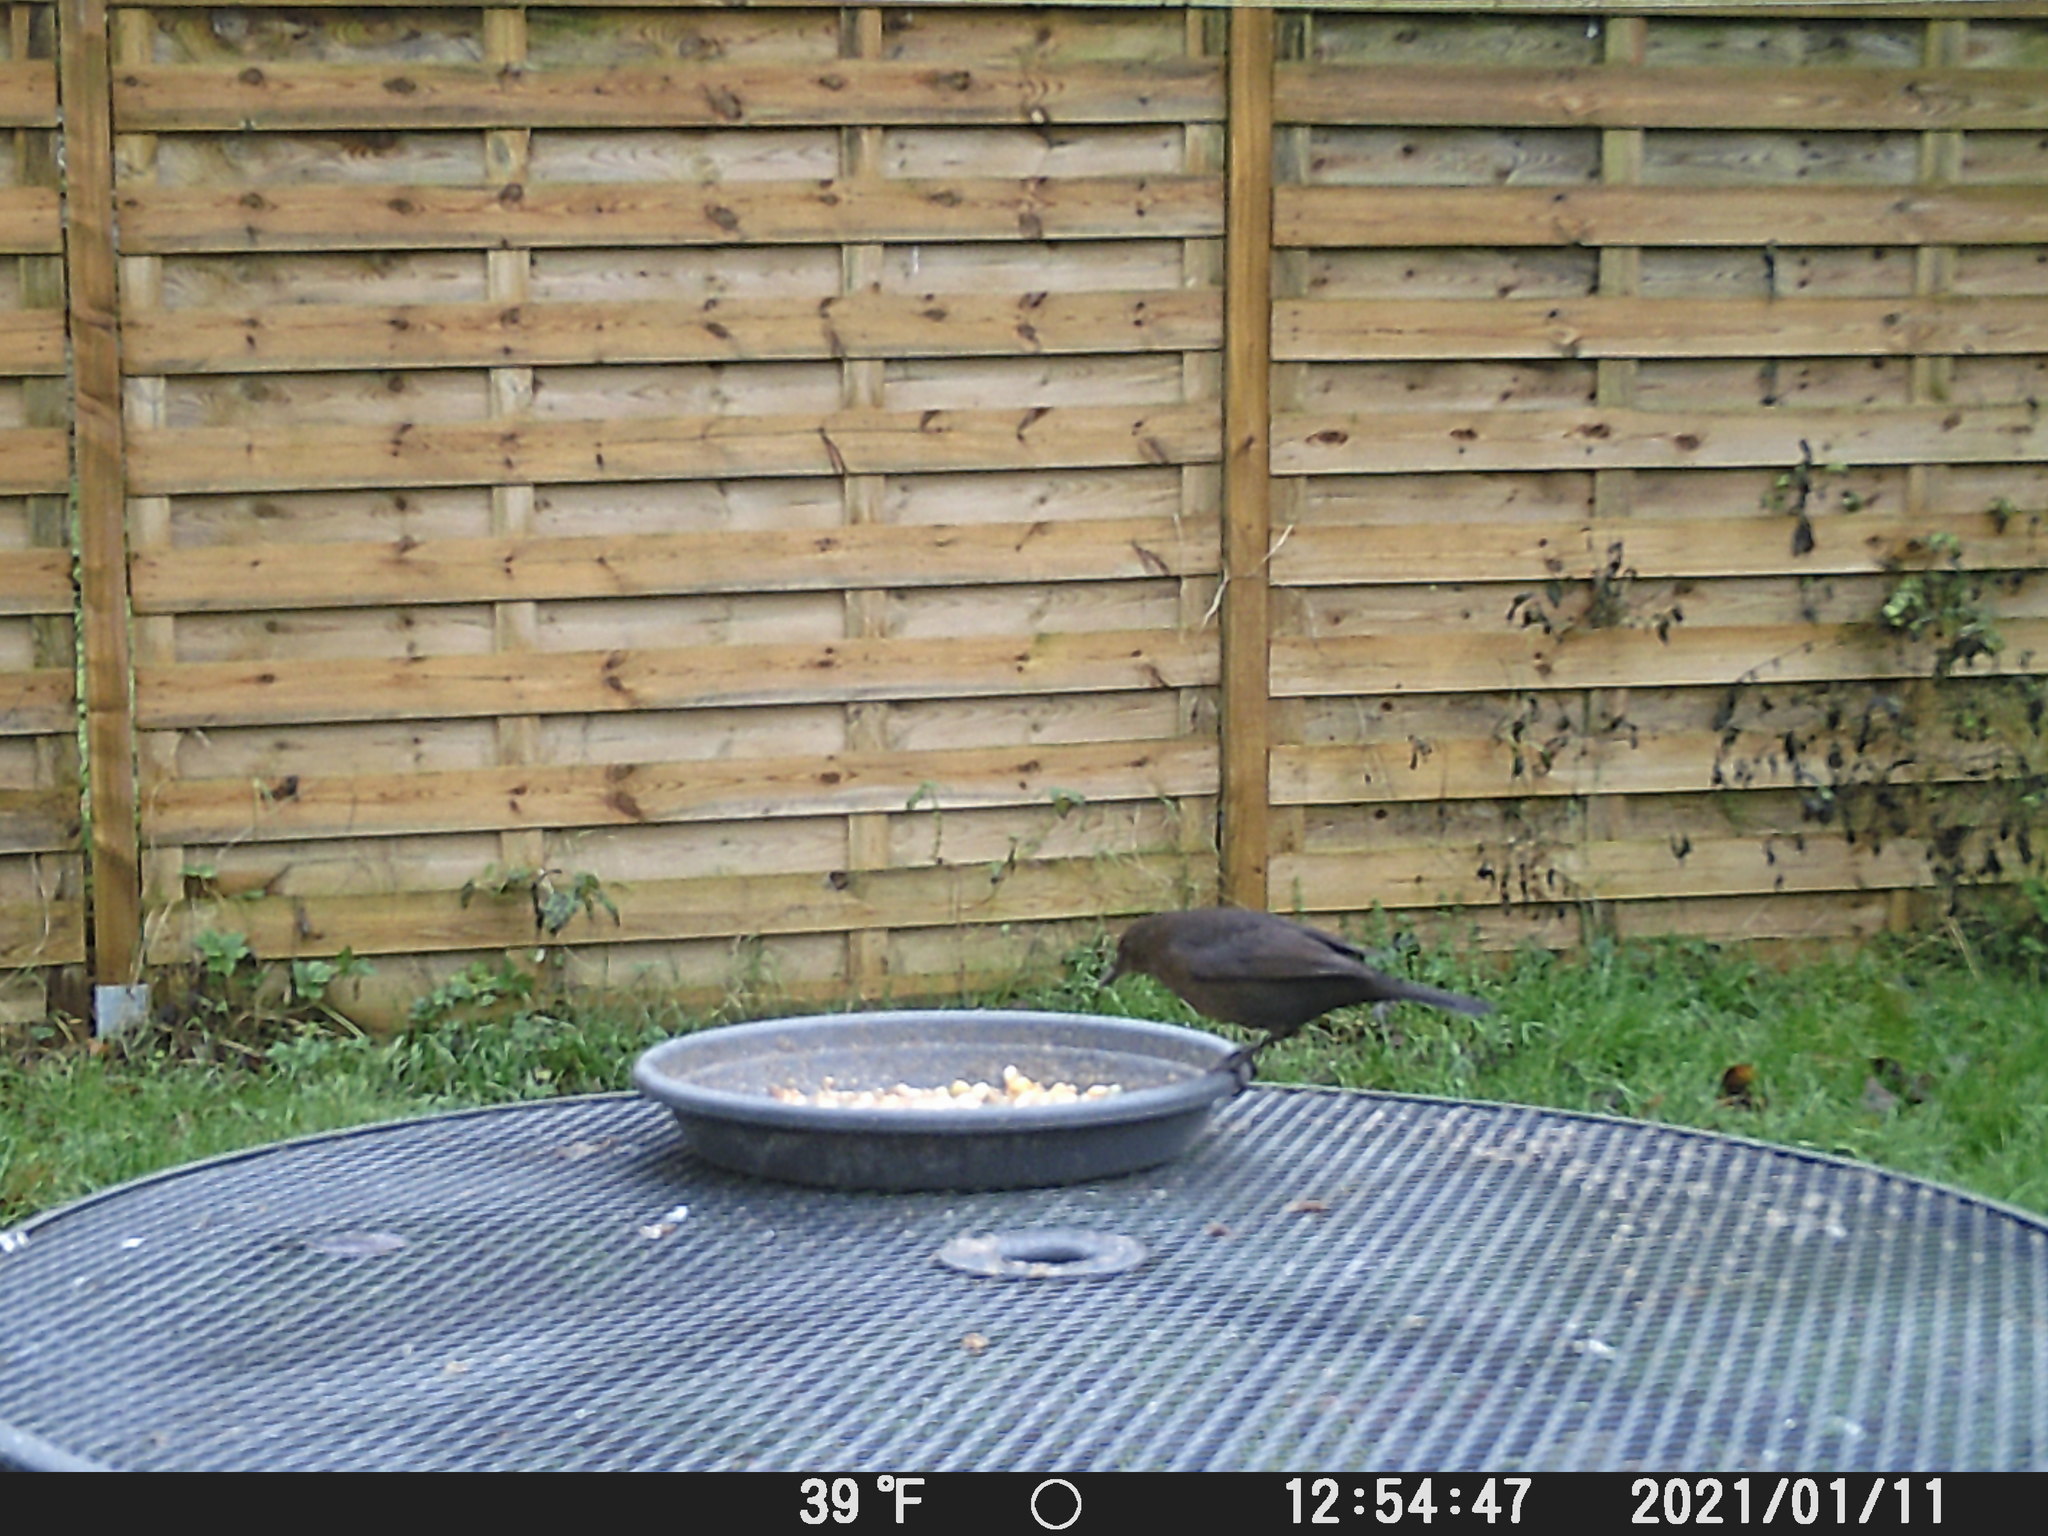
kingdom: Animalia
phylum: Chordata
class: Aves
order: Passeriformes
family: Turdidae
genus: Turdus
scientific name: Turdus merula
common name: Common blackbird
